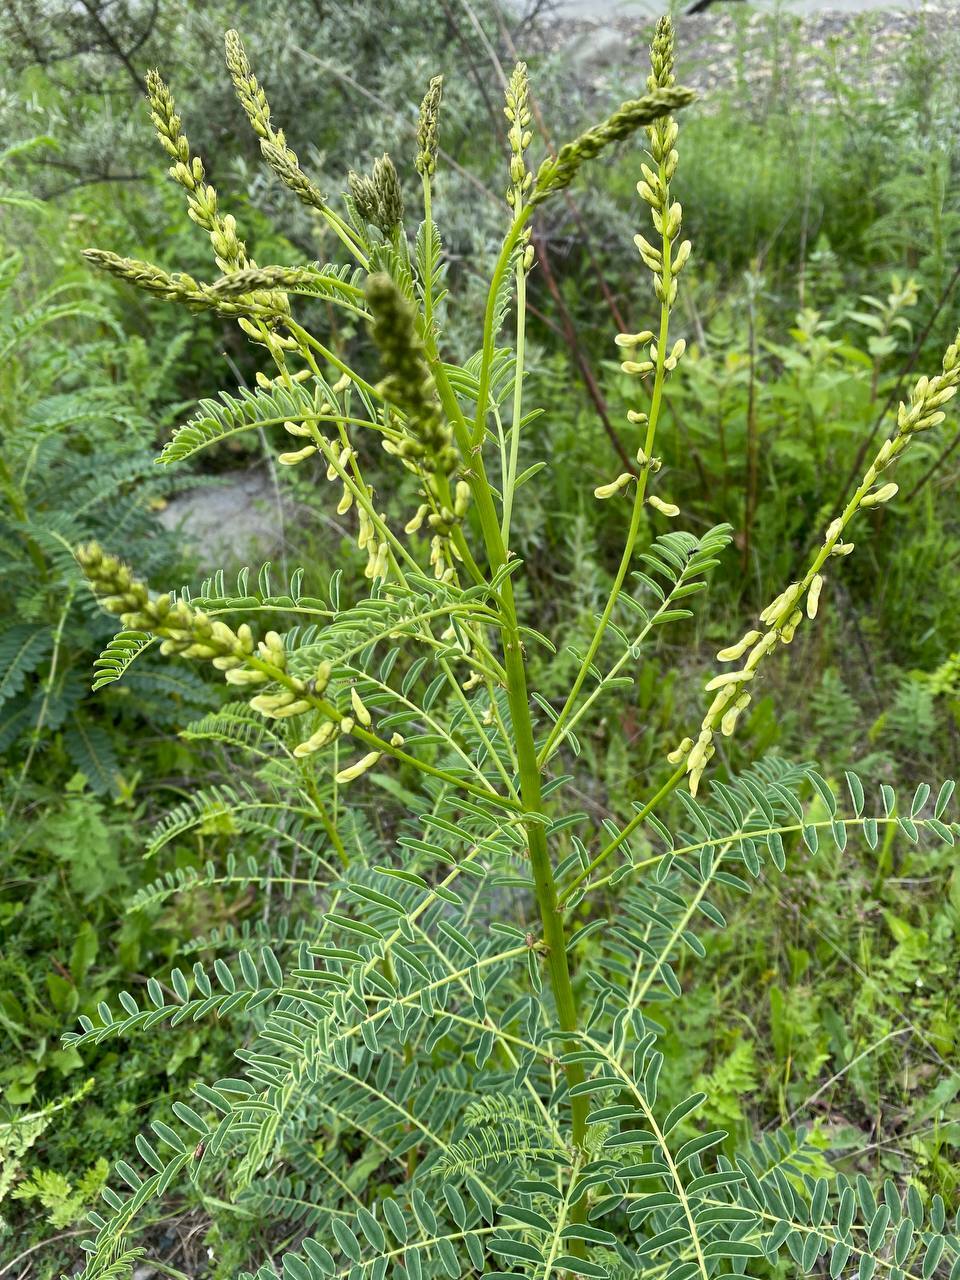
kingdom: Plantae
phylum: Tracheophyta
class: Magnoliopsida
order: Fabales
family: Fabaceae
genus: Astragalus
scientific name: Astragalus galegiformis
